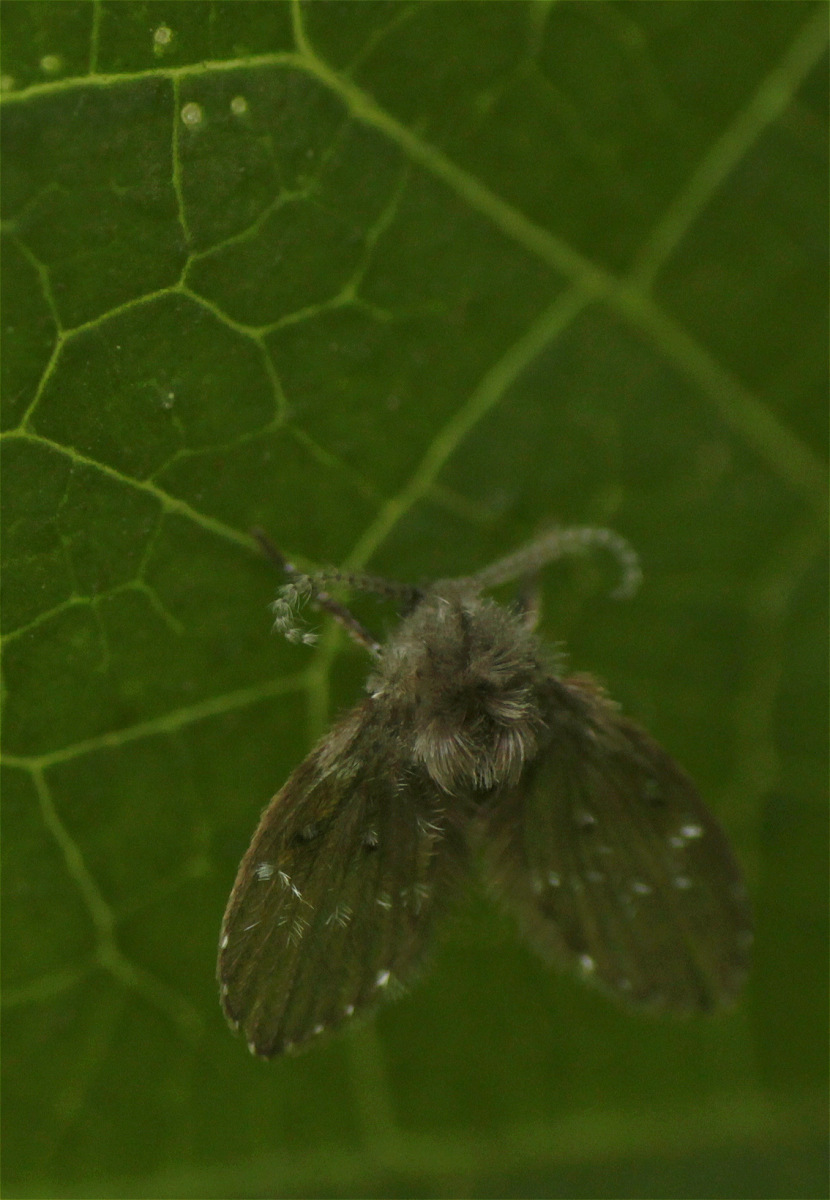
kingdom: Animalia
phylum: Arthropoda
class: Insecta
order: Diptera
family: Psychodidae
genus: Clogmia
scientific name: Clogmia albipunctatus
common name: White-spotted moth fly
